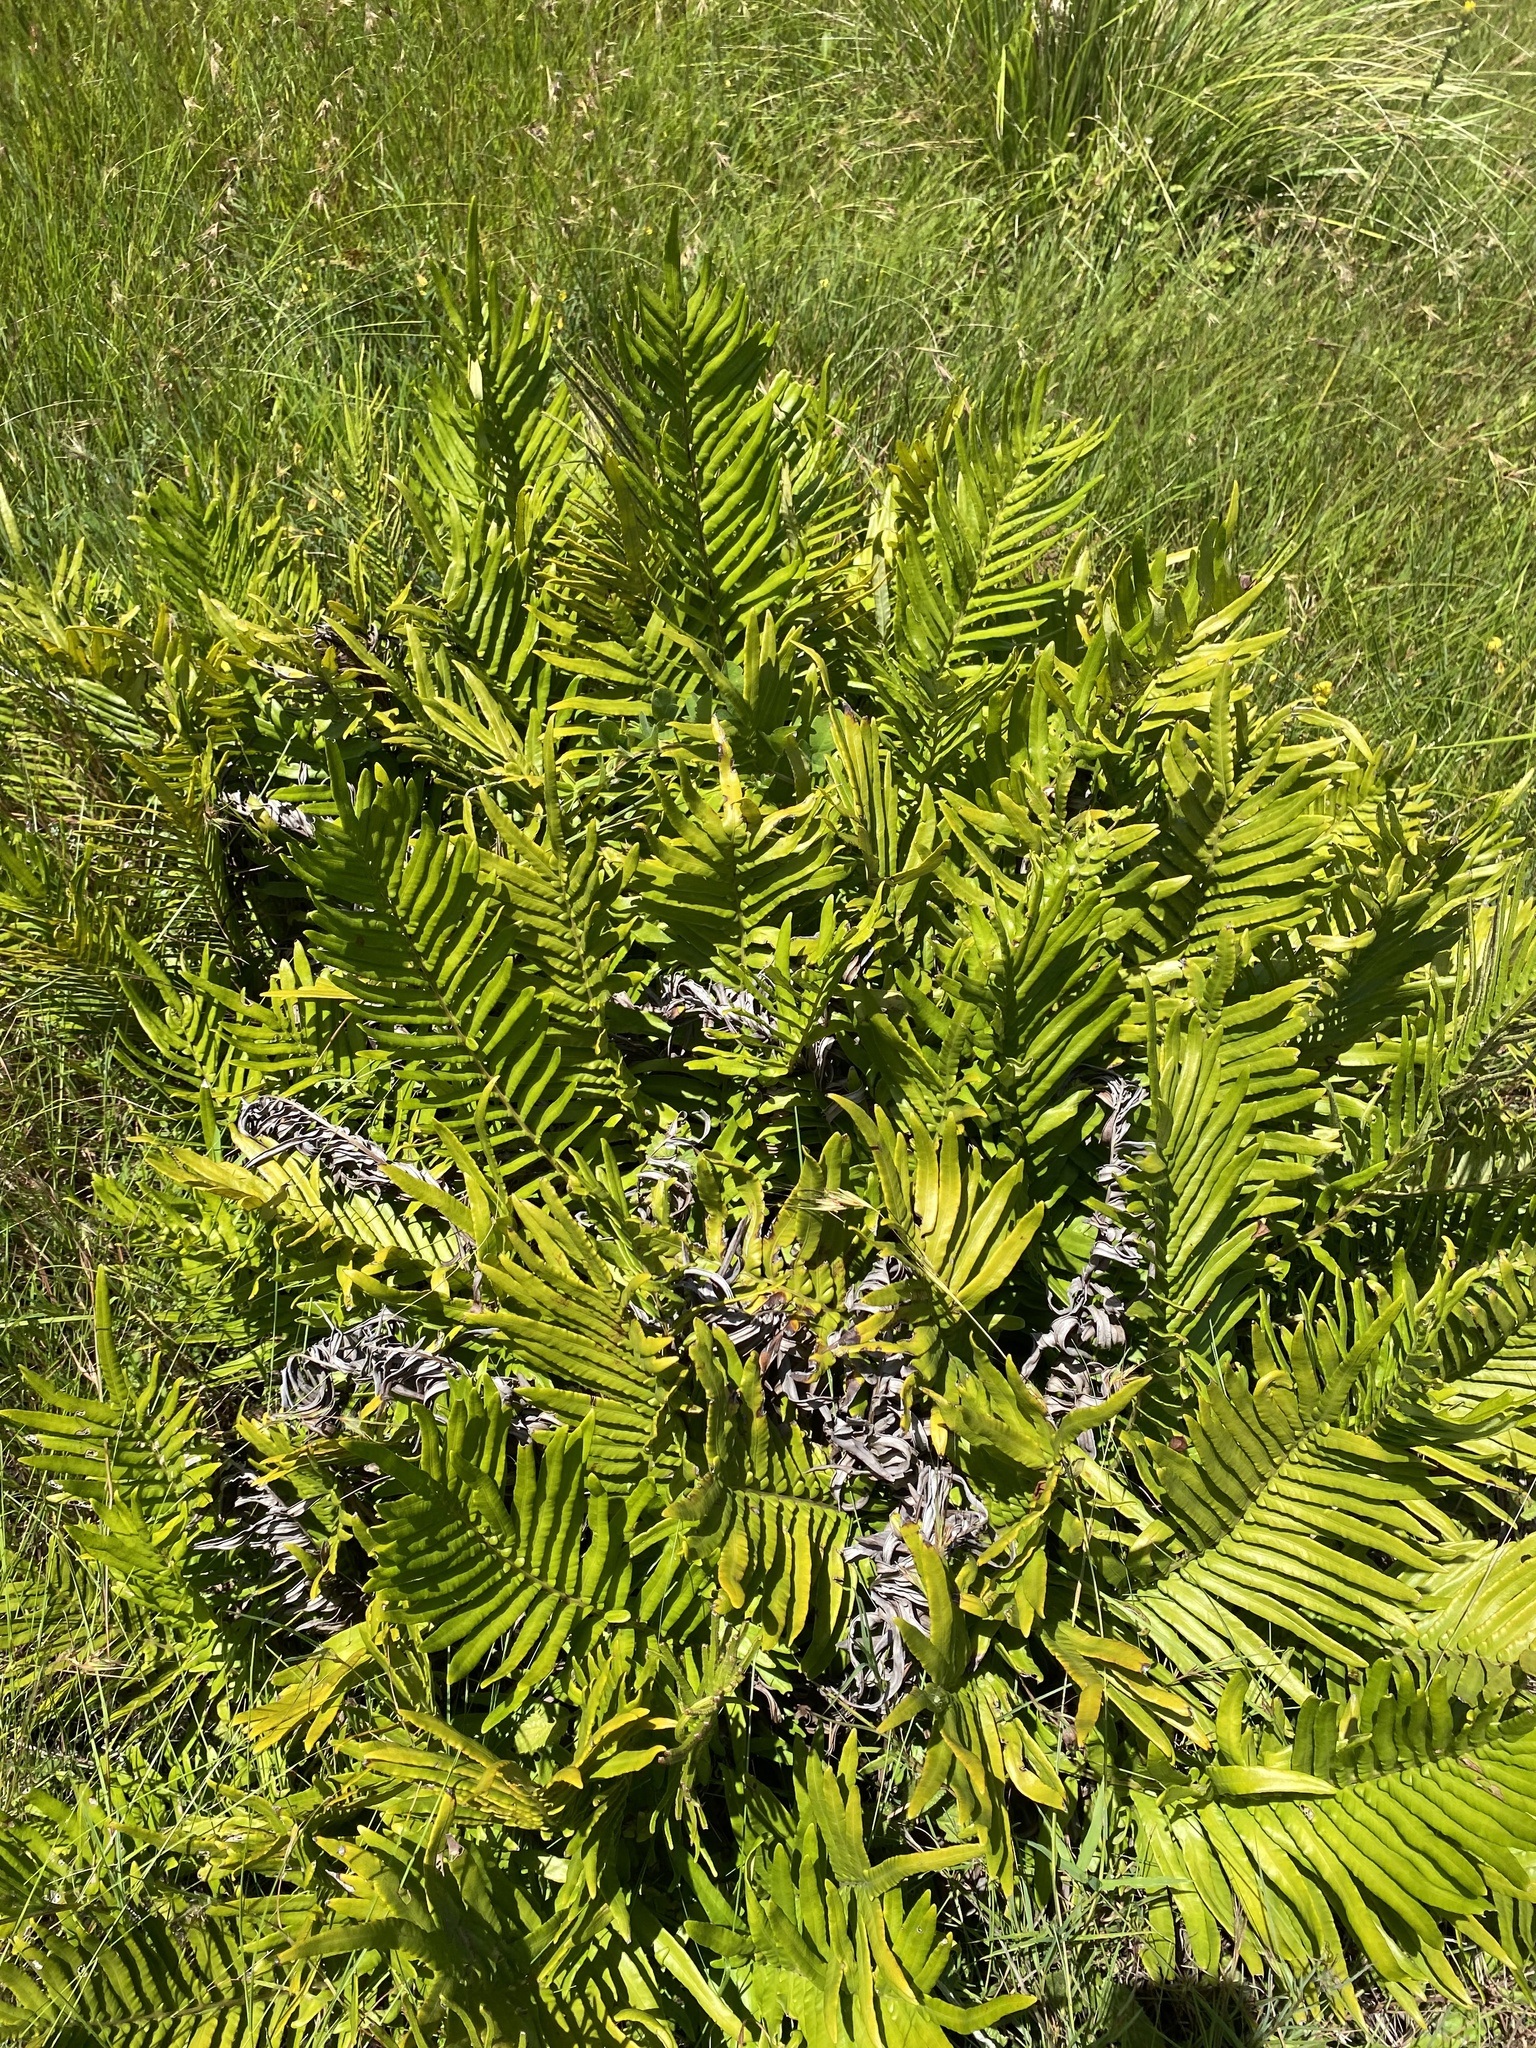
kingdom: Plantae
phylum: Tracheophyta
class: Polypodiopsida
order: Polypodiales
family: Blechnaceae
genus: Lomariocycas
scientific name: Lomariocycas tabularis
